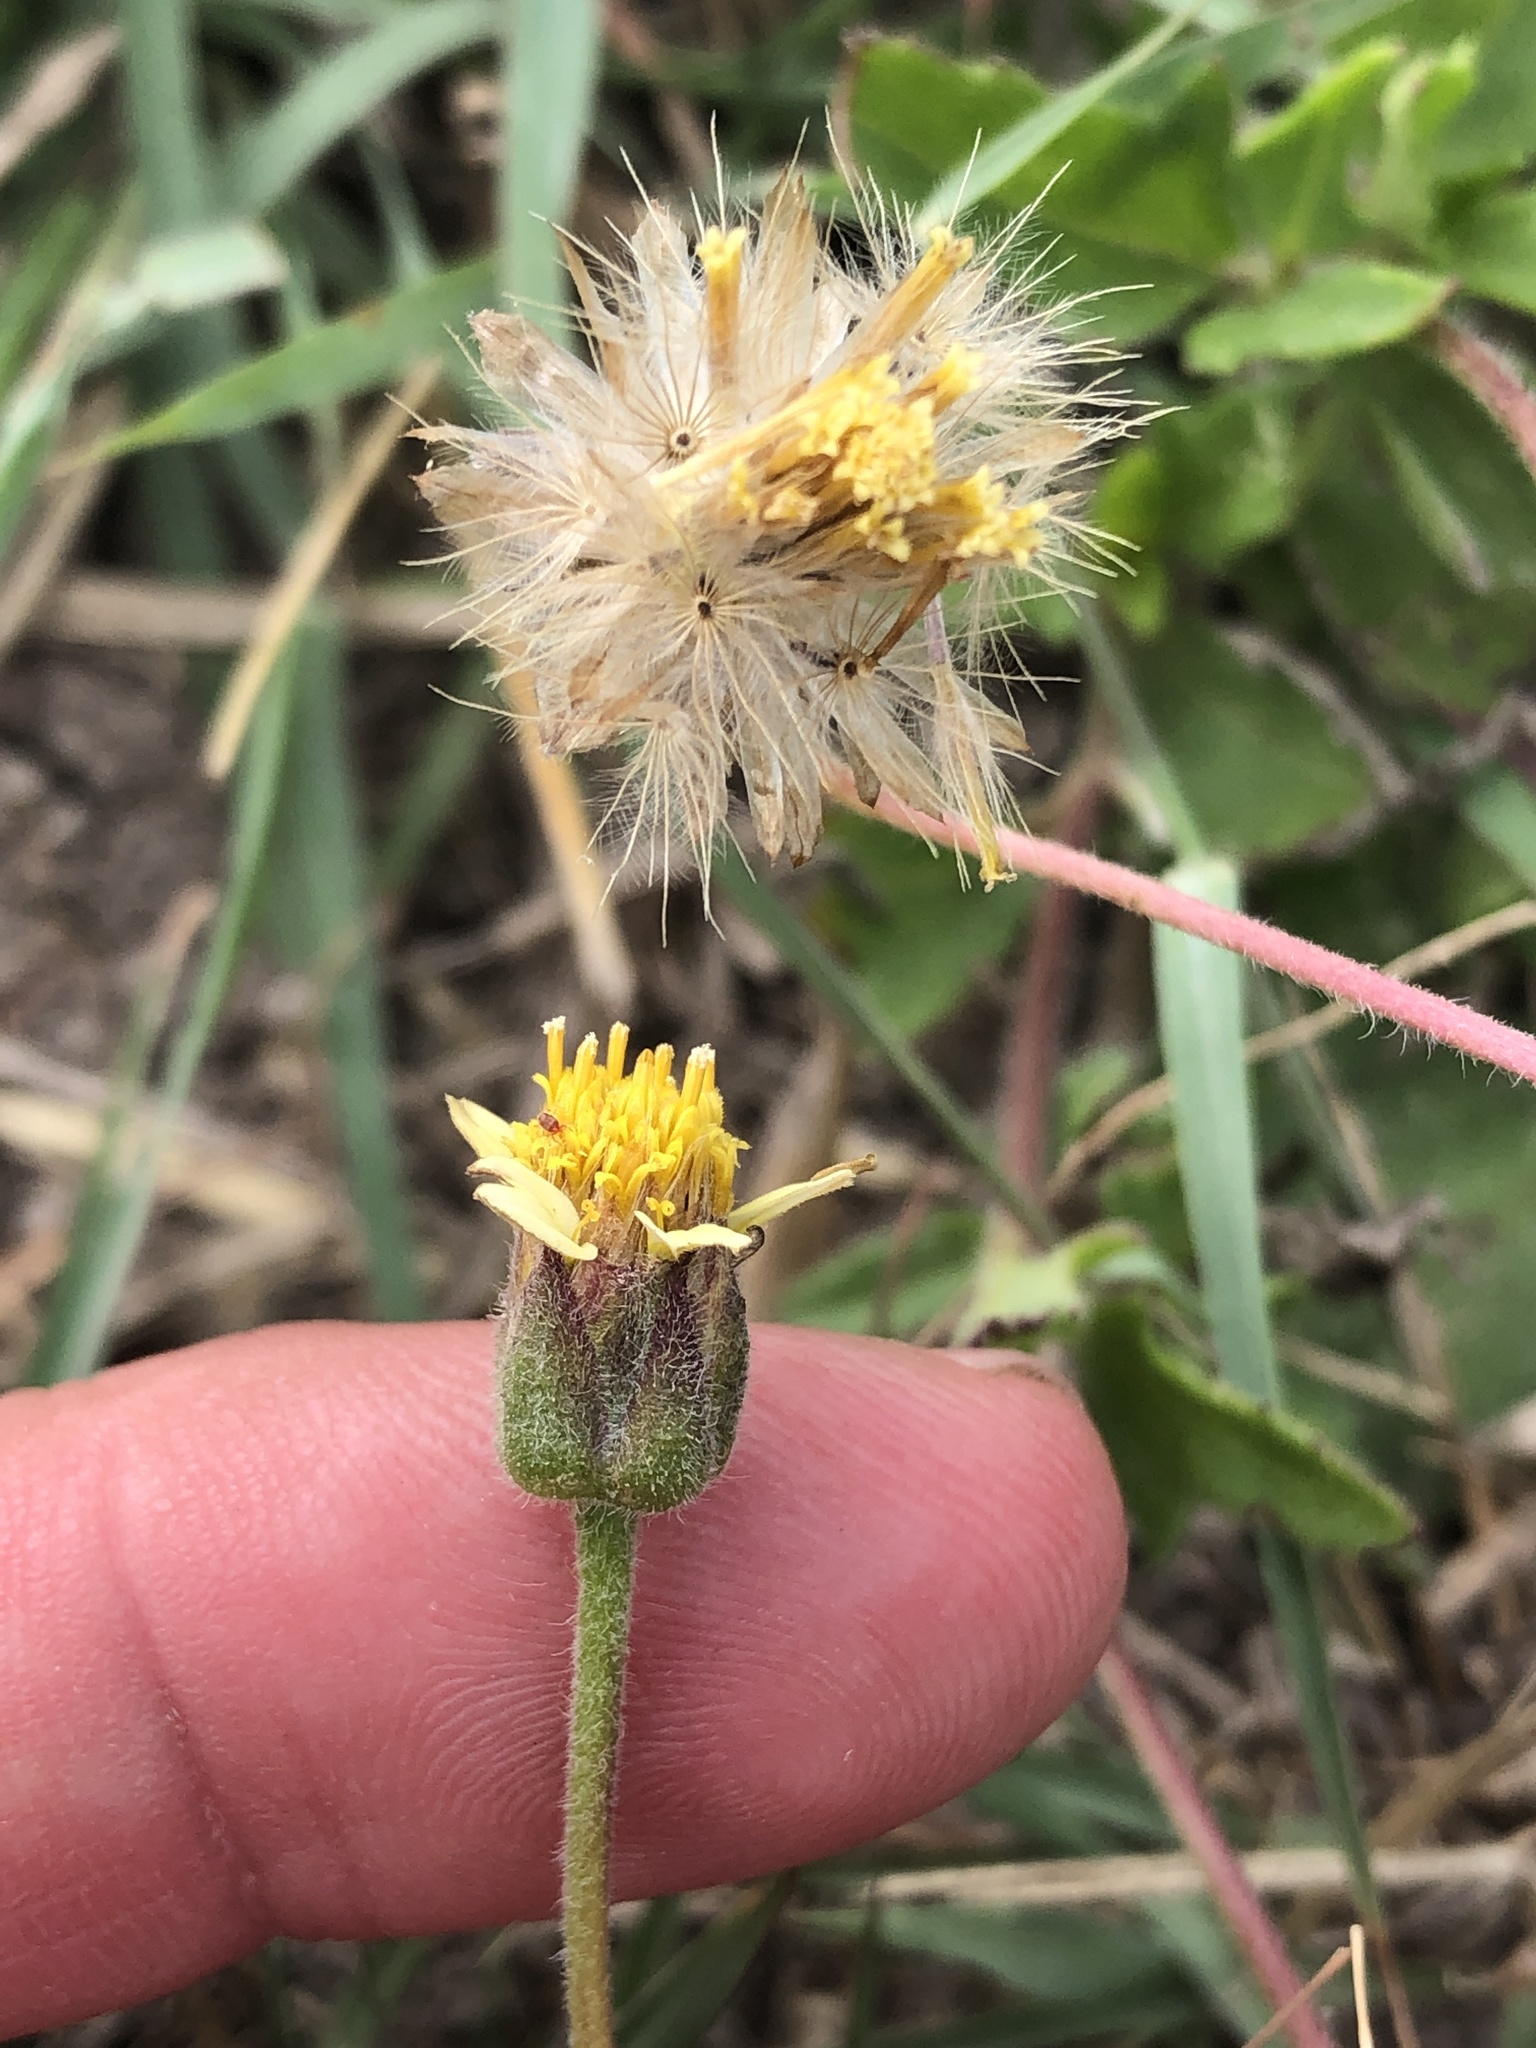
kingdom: Plantae
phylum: Tracheophyta
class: Magnoliopsida
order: Asterales
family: Asteraceae
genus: Tridax
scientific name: Tridax procumbens
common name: Coatbuttons
